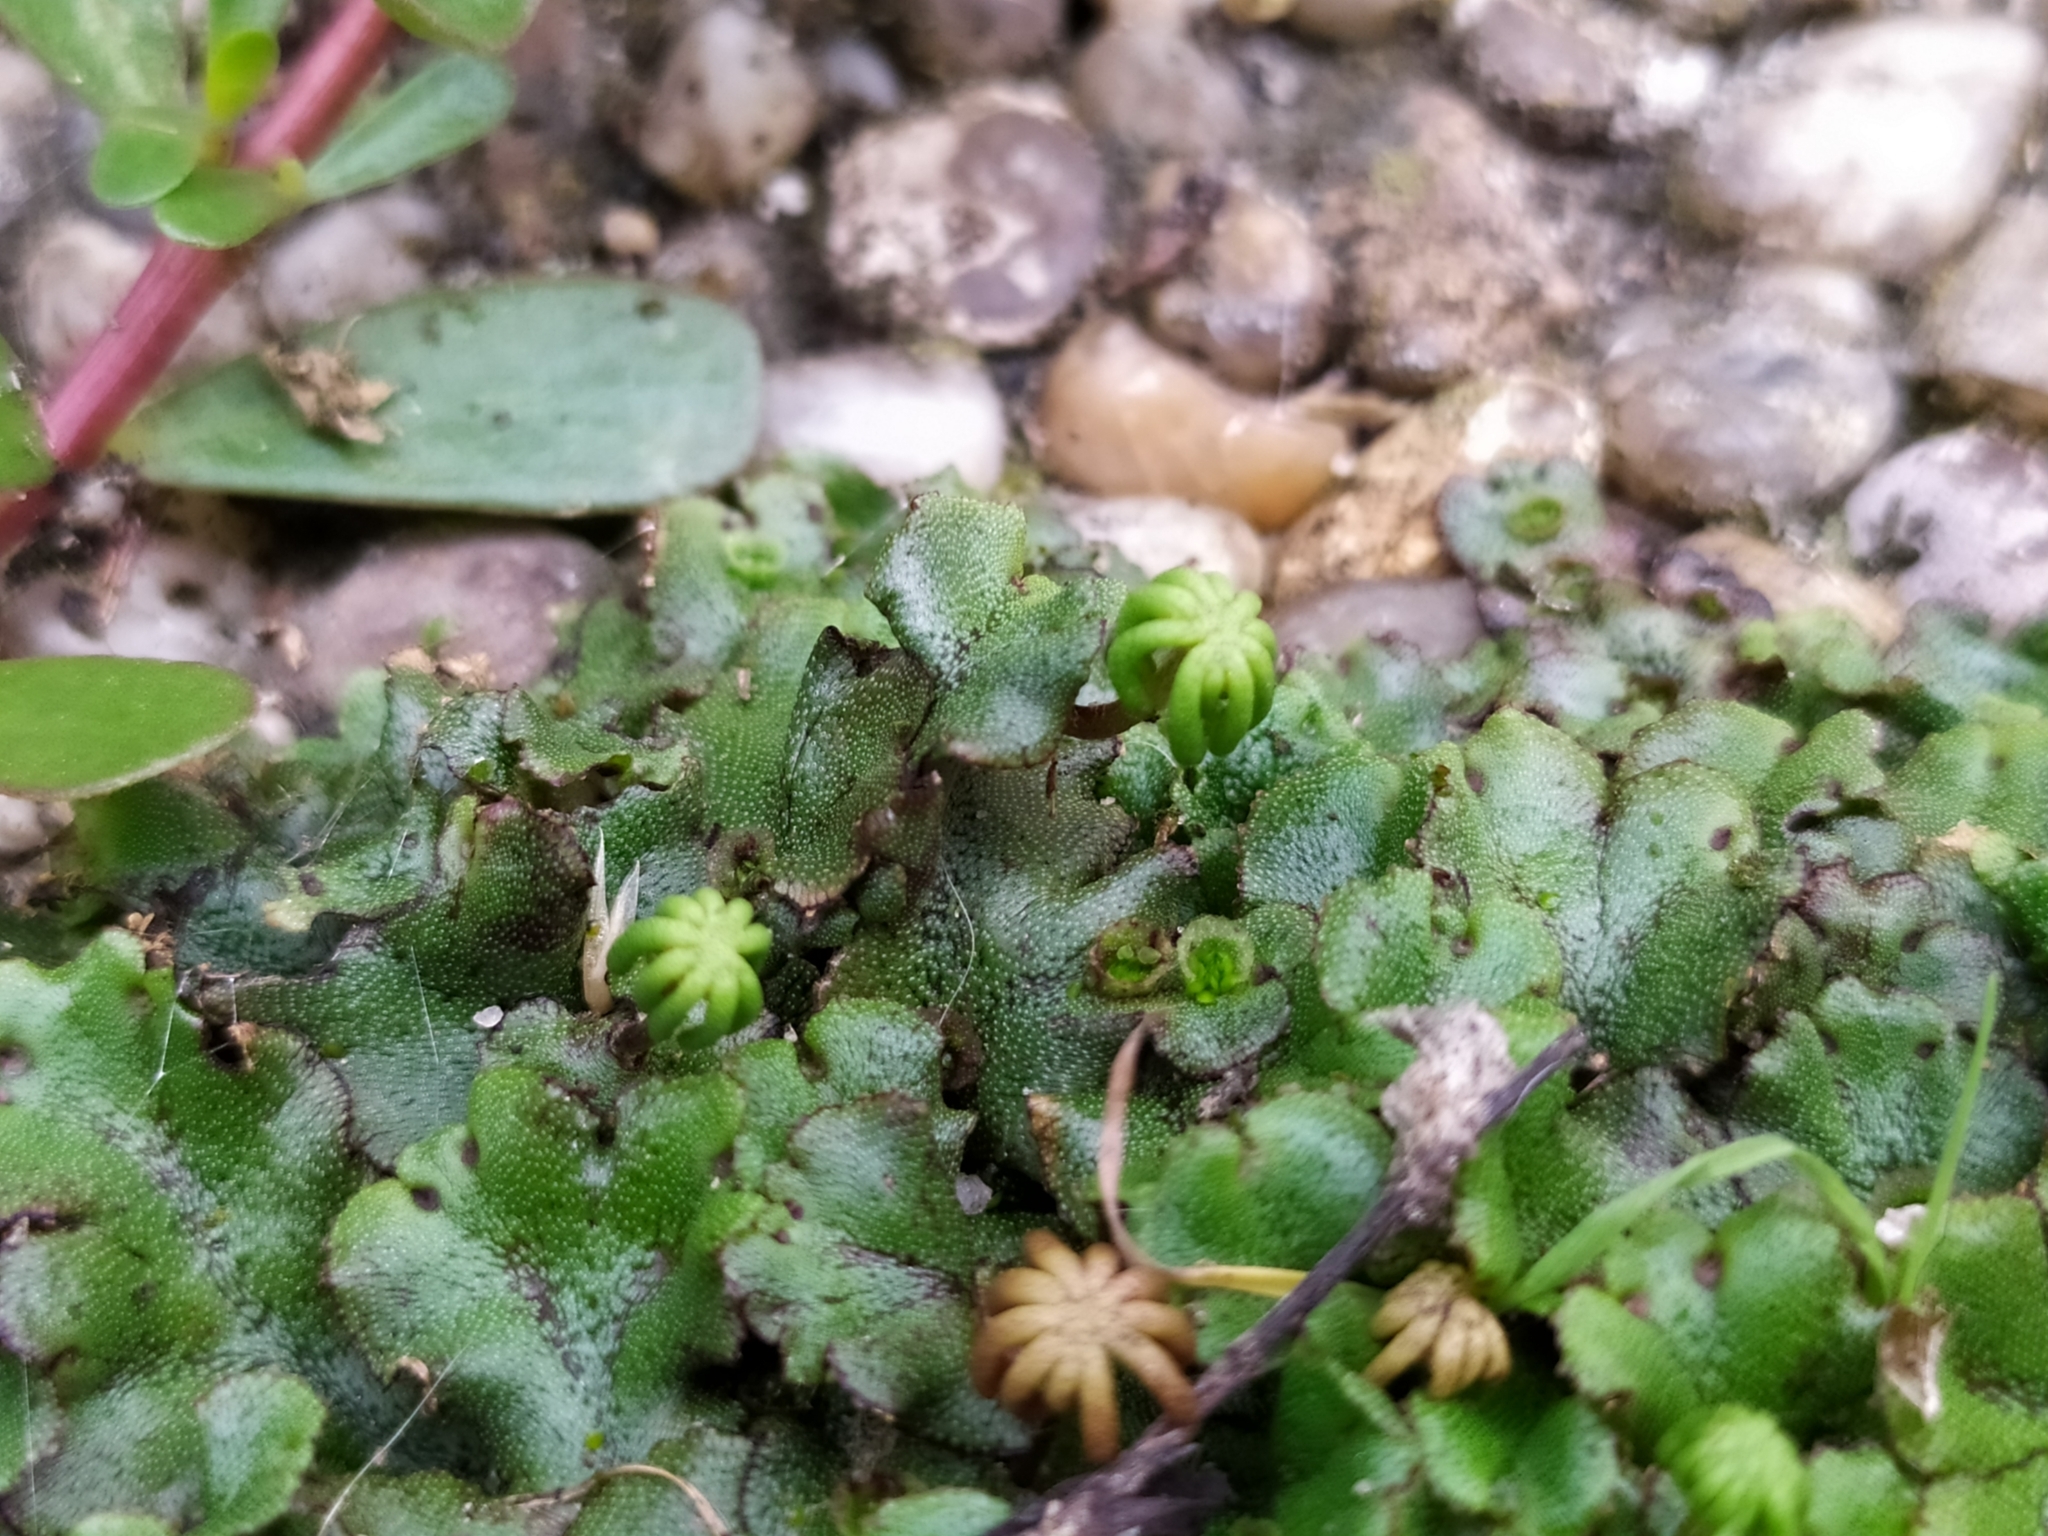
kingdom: Plantae
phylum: Marchantiophyta
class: Marchantiopsida
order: Marchantiales
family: Marchantiaceae
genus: Marchantia
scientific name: Marchantia polymorpha
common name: Common liverwort
